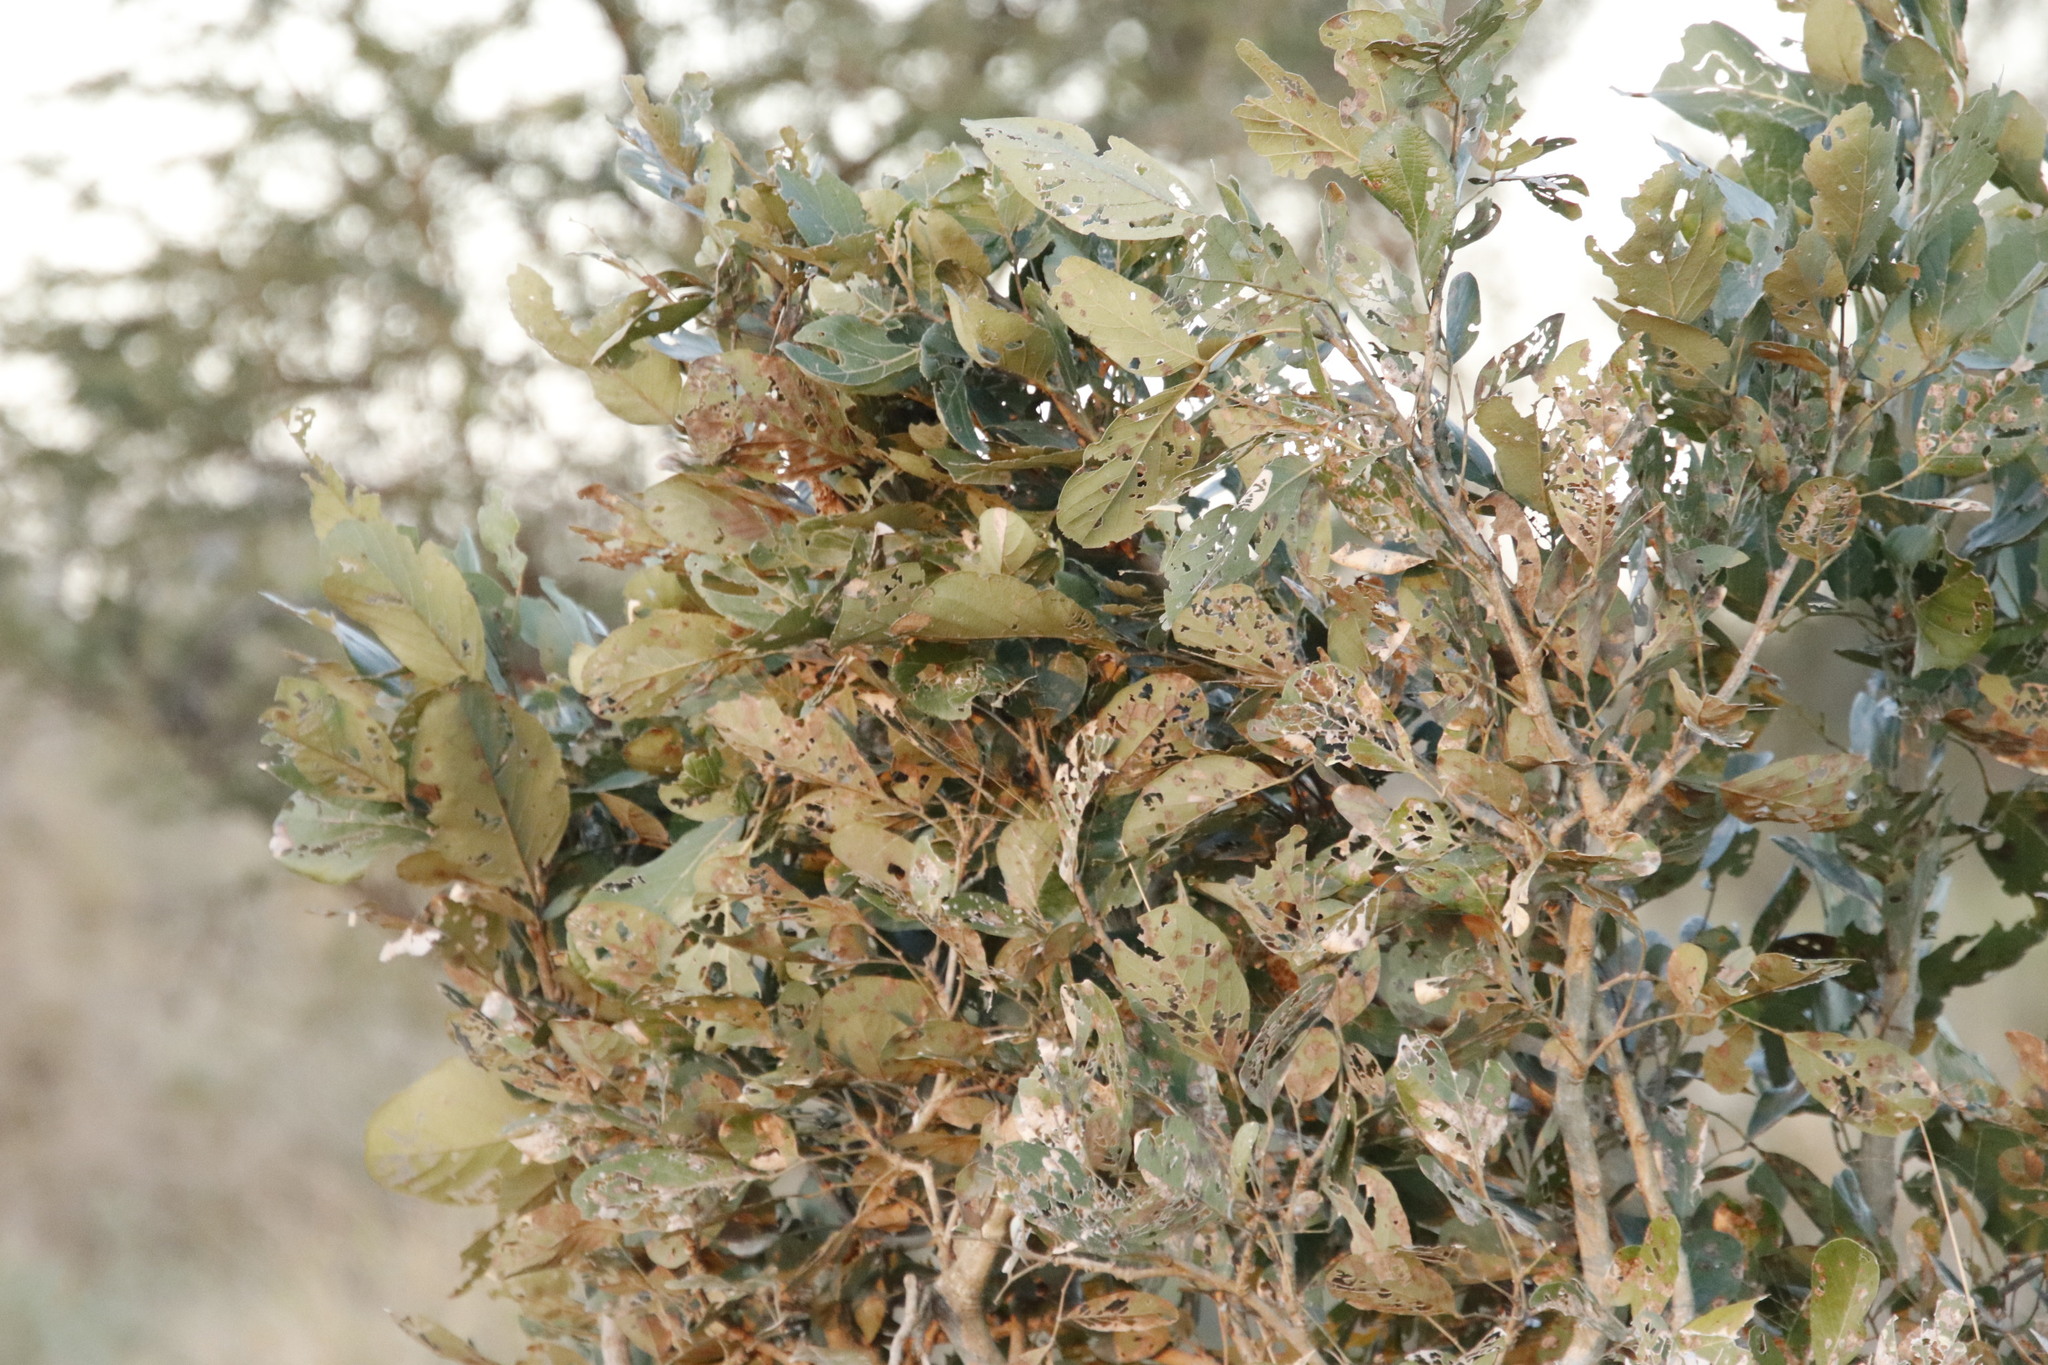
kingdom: Plantae
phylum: Tracheophyta
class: Magnoliopsida
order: Fabales
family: Fabaceae
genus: Philenoptera
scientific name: Philenoptera violacea
